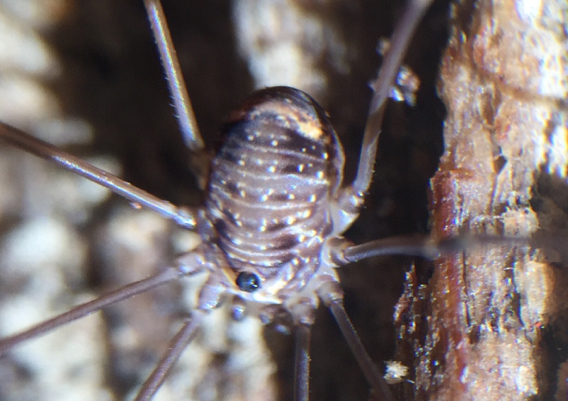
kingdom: Animalia
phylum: Arthropoda
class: Arachnida
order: Opiliones
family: Sclerosomatidae
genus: Nelima
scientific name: Nelima paessleri
